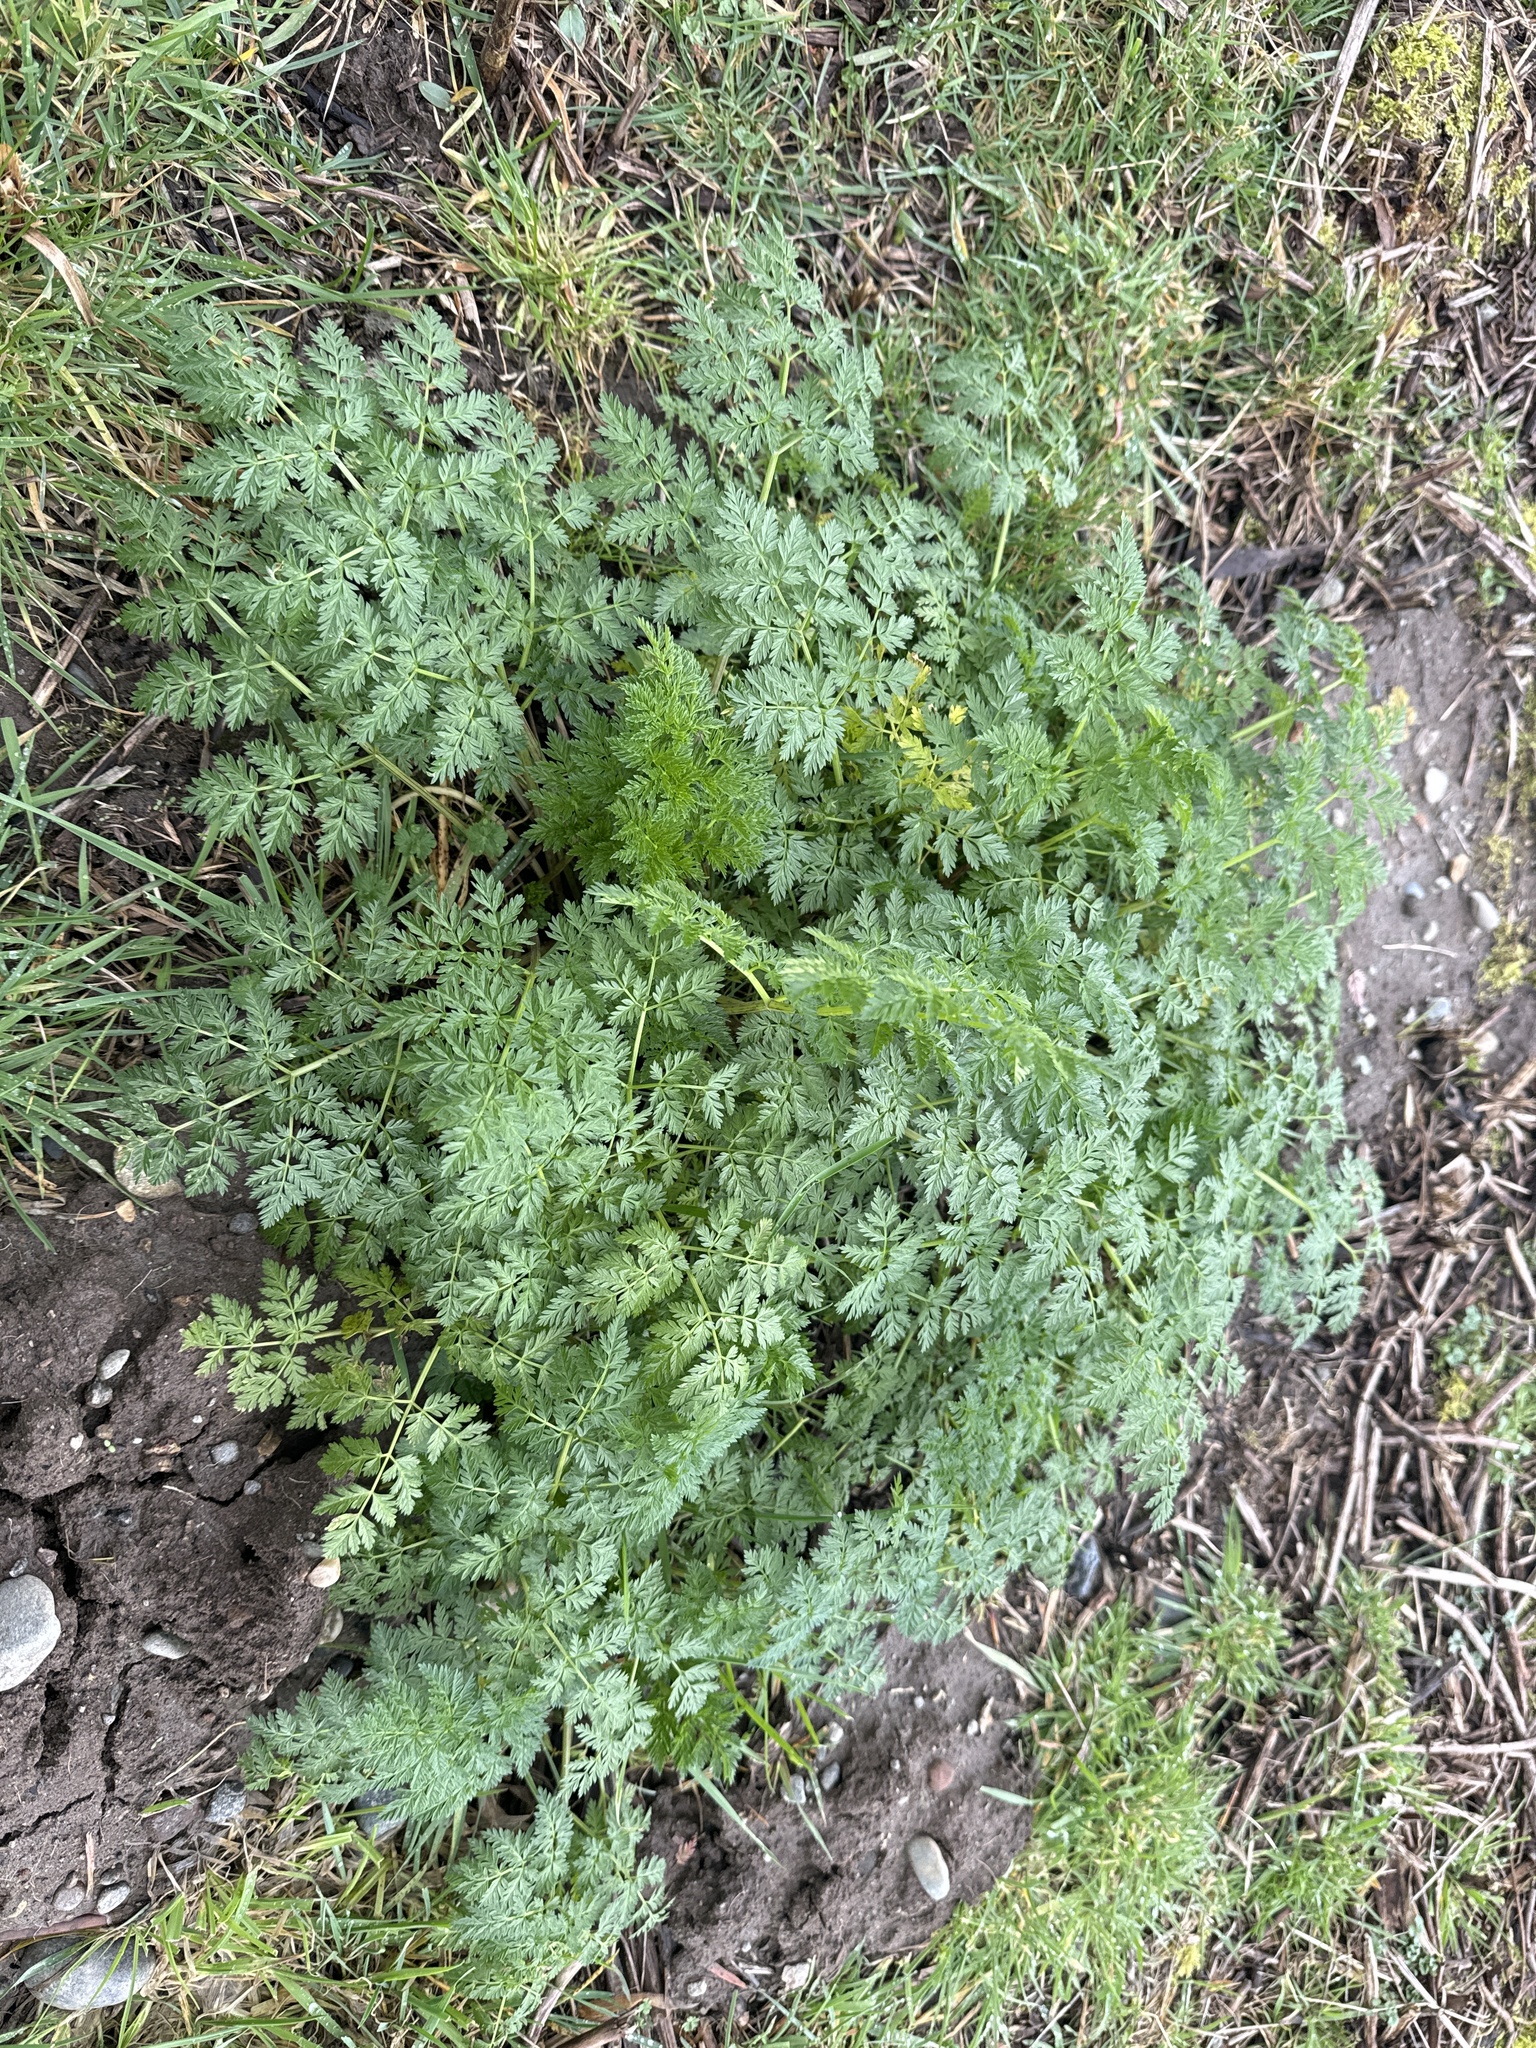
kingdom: Plantae
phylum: Tracheophyta
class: Magnoliopsida
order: Apiales
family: Apiaceae
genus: Conium
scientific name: Conium maculatum
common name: Hemlock
